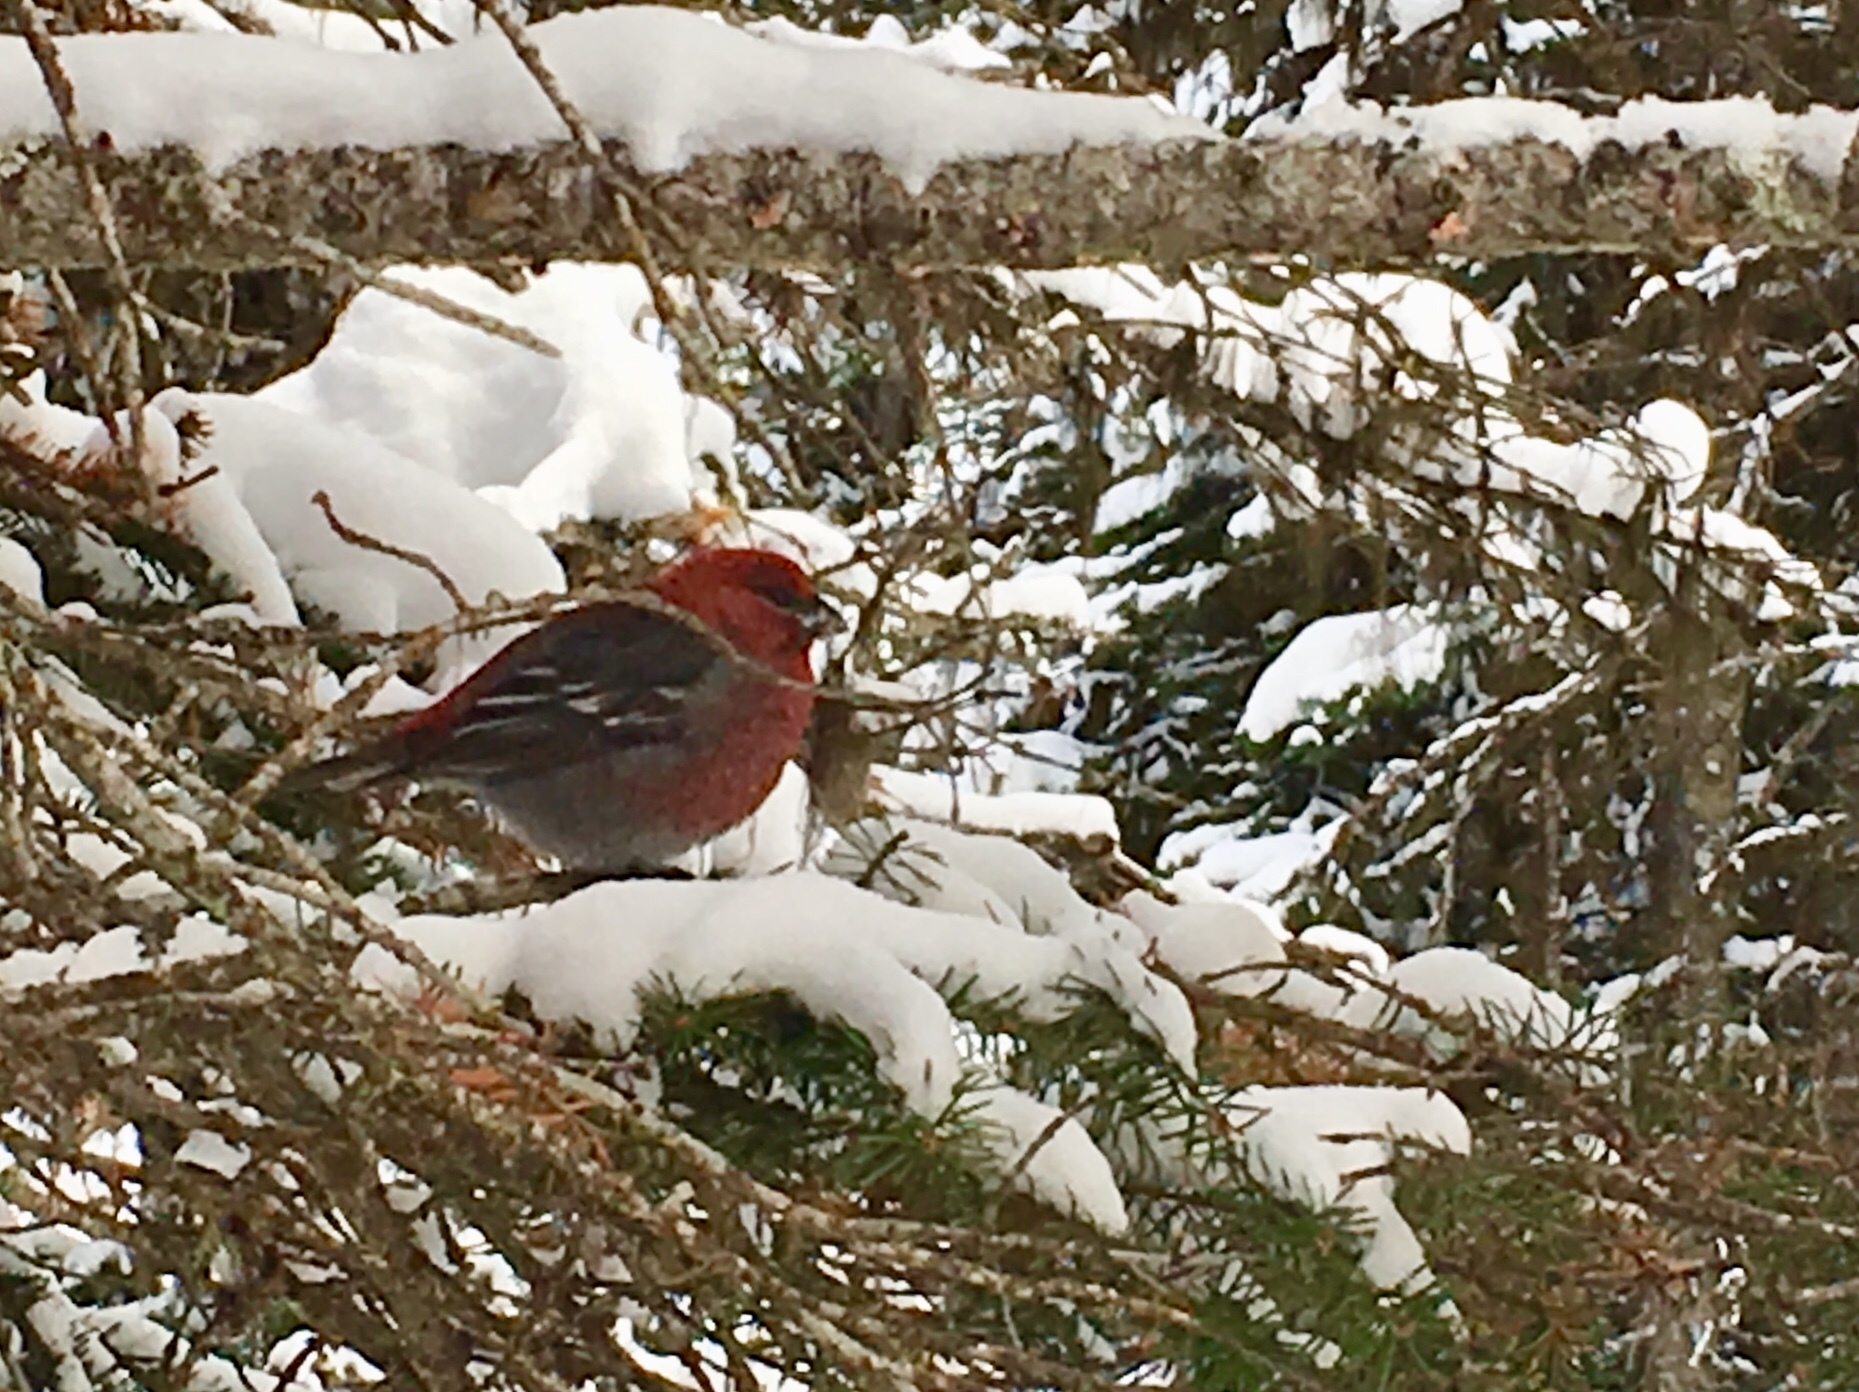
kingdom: Animalia
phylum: Chordata
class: Aves
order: Passeriformes
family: Fringillidae
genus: Pinicola
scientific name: Pinicola enucleator
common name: Pine grosbeak
